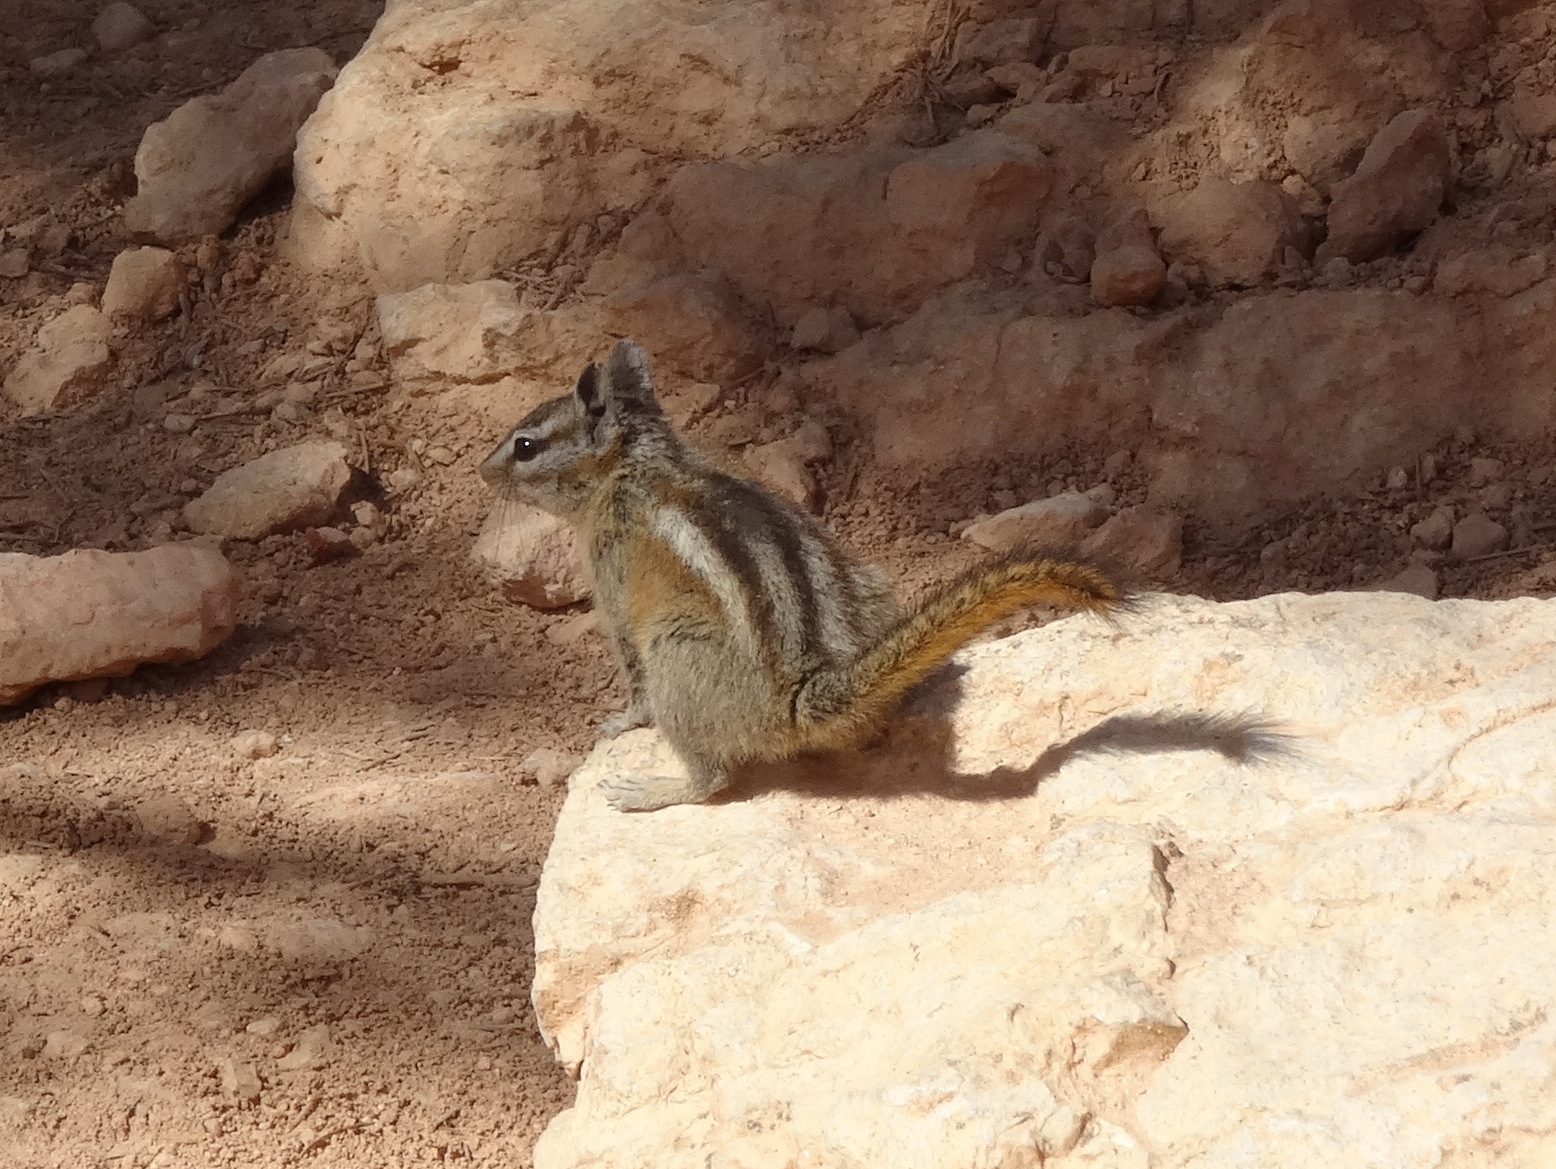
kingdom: Animalia
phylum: Chordata
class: Mammalia
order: Rodentia
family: Sciuridae
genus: Tamias
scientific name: Tamias umbrinus
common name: Uinta chipmunk
